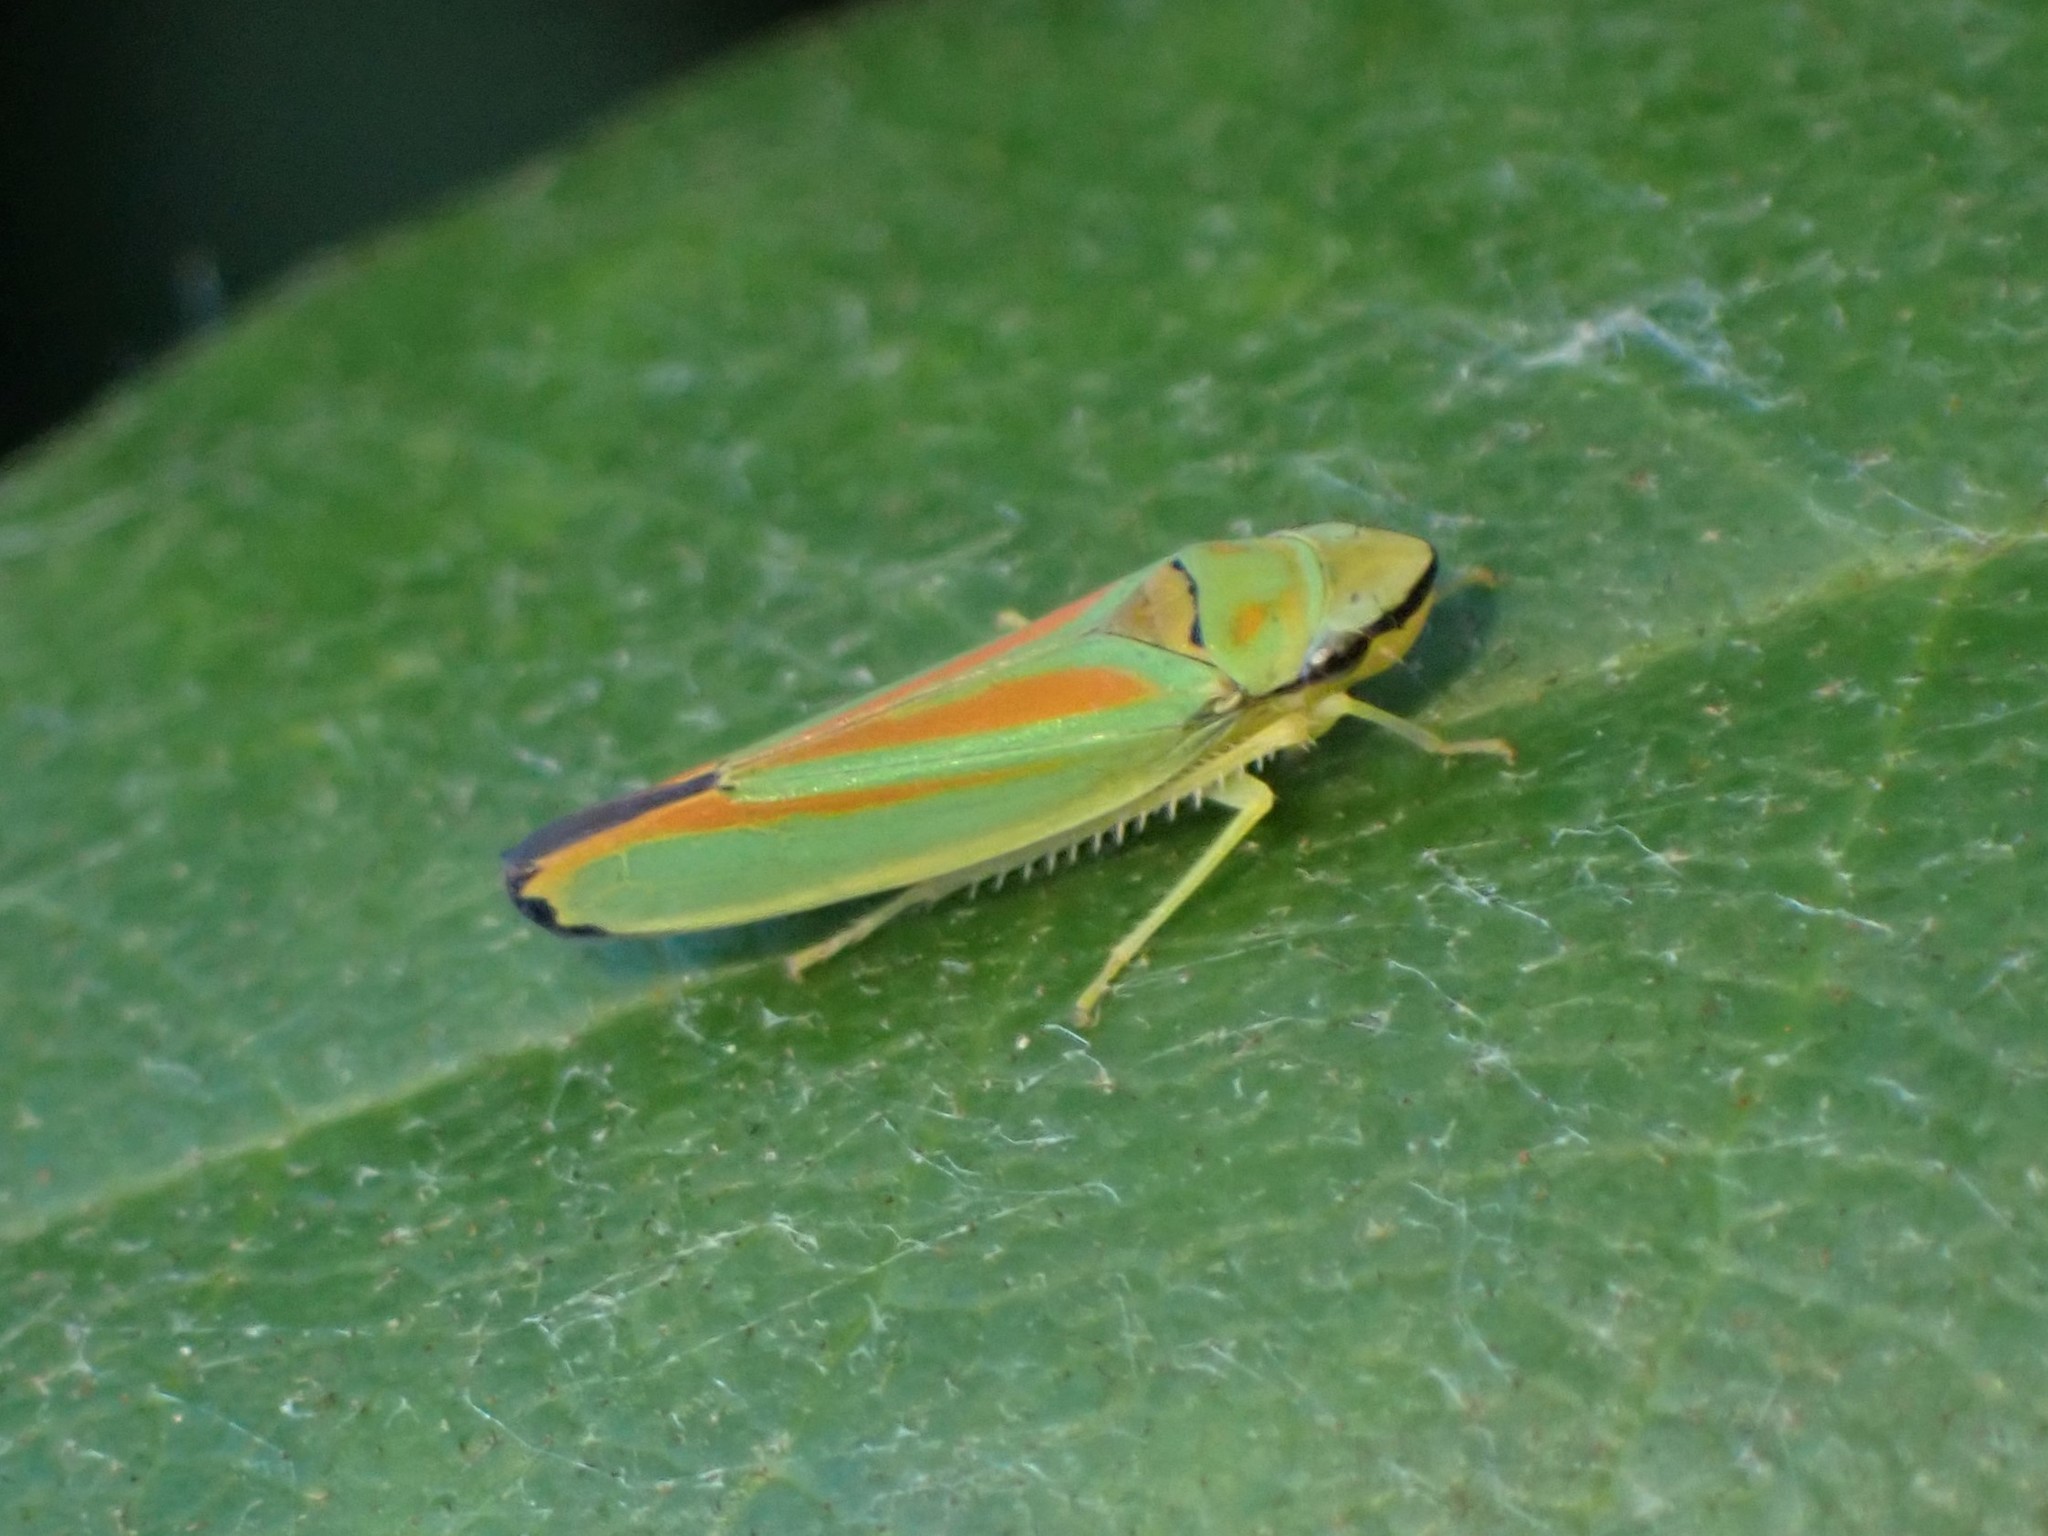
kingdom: Animalia
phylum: Arthropoda
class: Insecta
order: Hemiptera
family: Cicadellidae
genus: Graphocephala
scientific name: Graphocephala fennahi
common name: Rhododendron leafhopper
